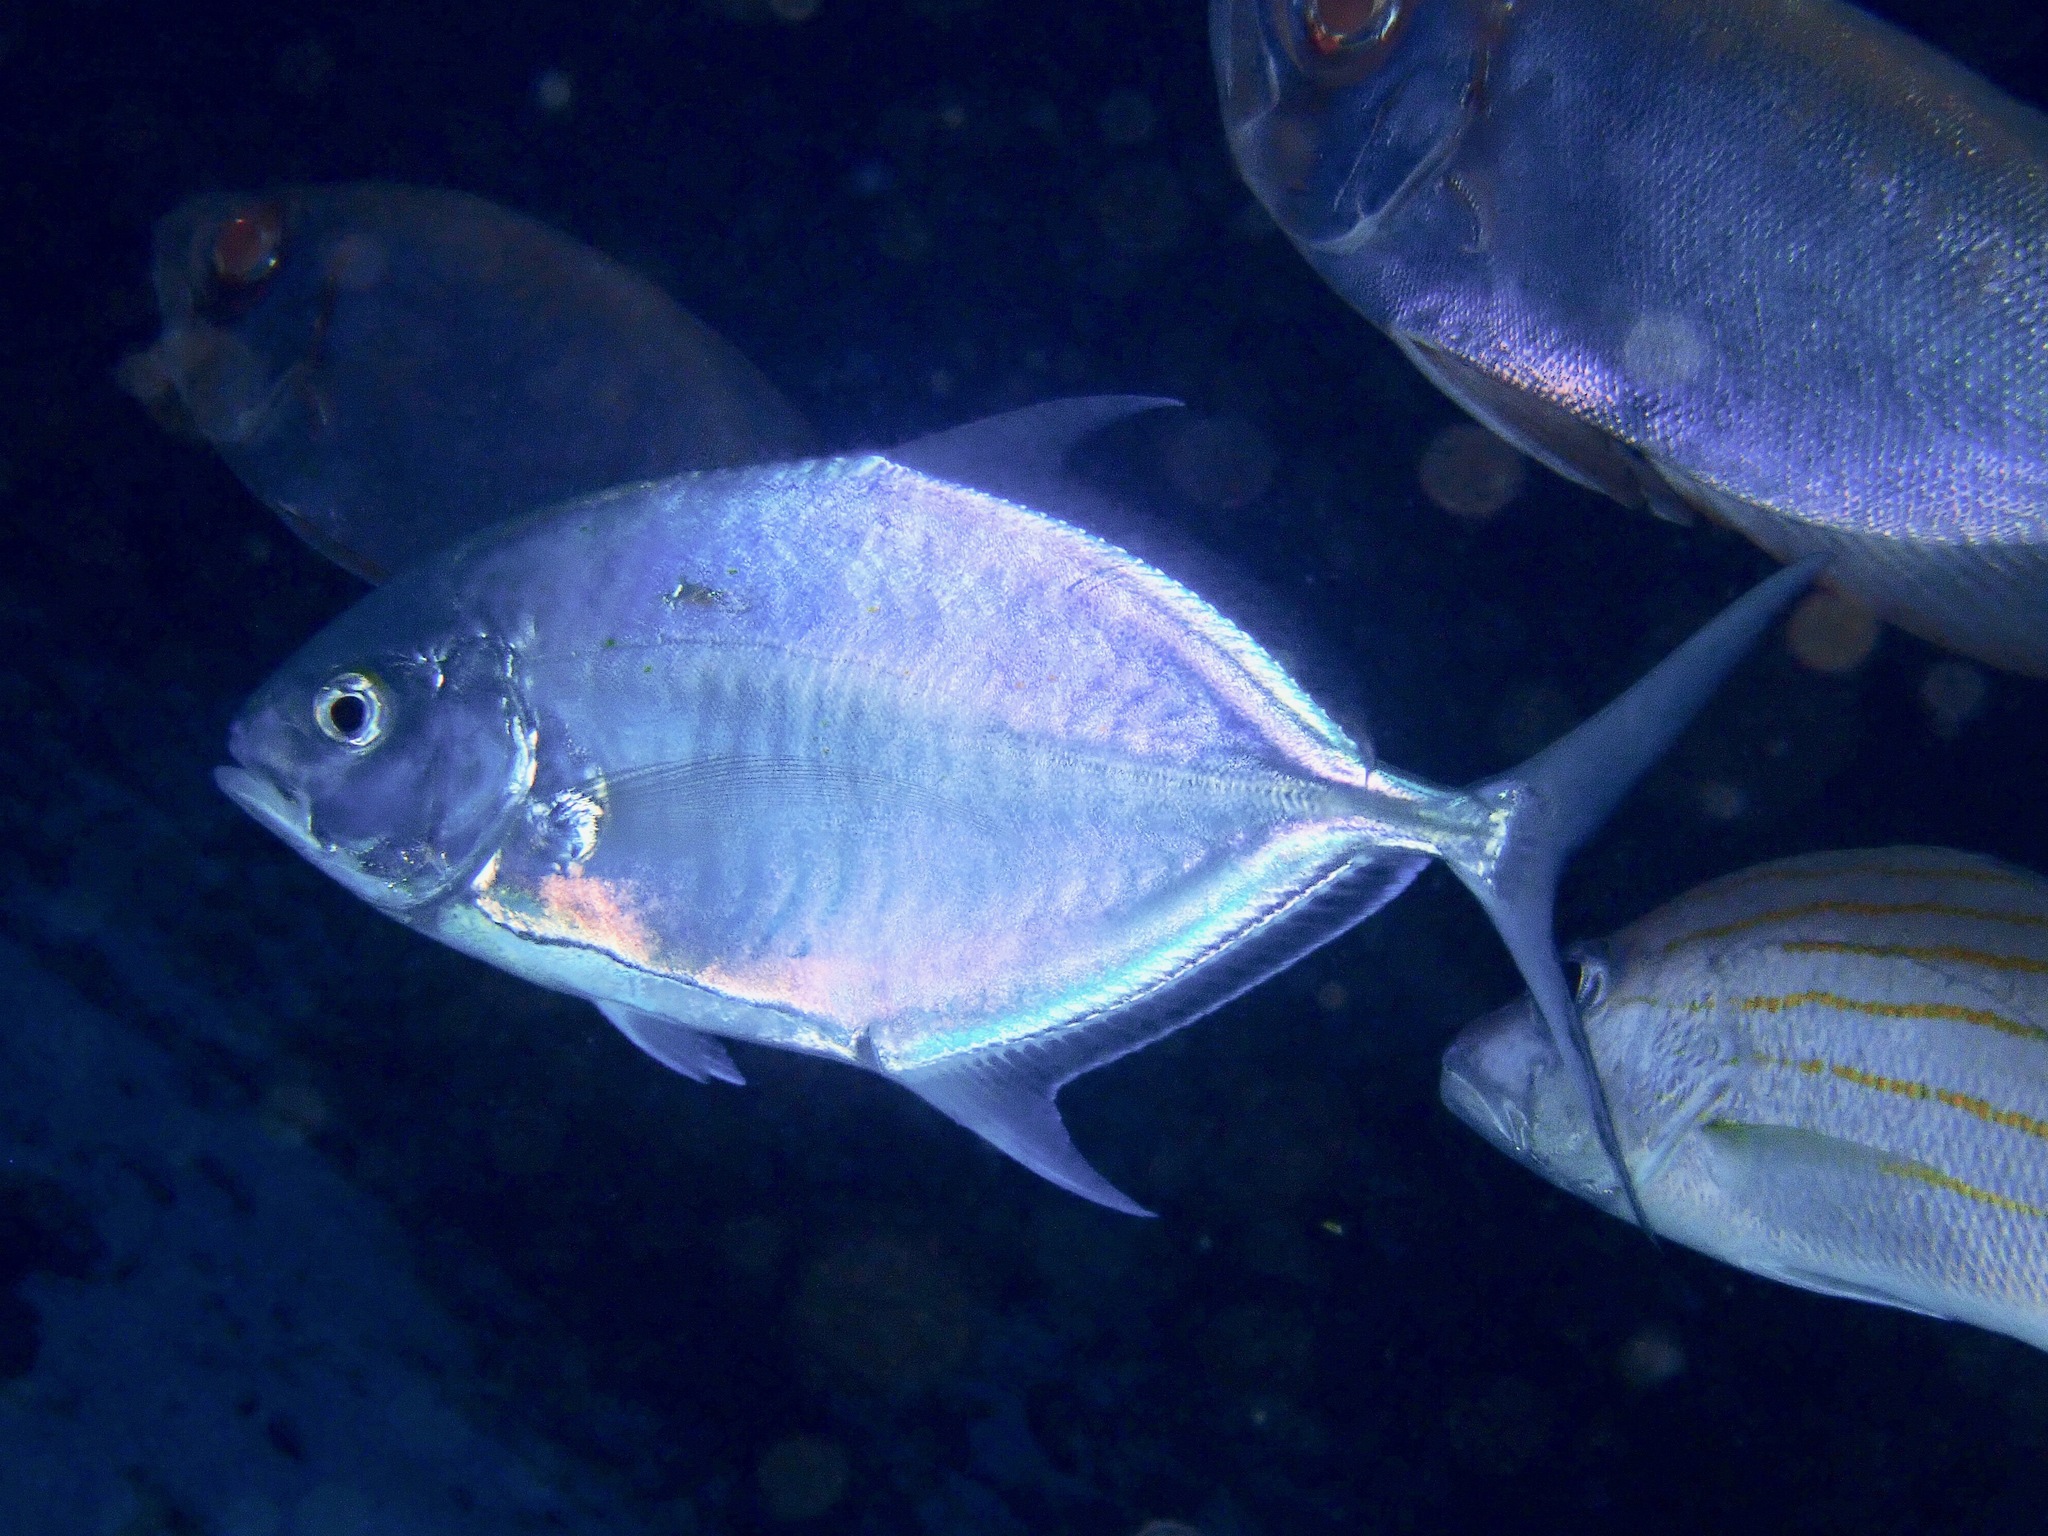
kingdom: Animalia
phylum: Chordata
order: Perciformes
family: Carangidae
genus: Carangoides
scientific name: Carangoides Ferdauia ferdau
